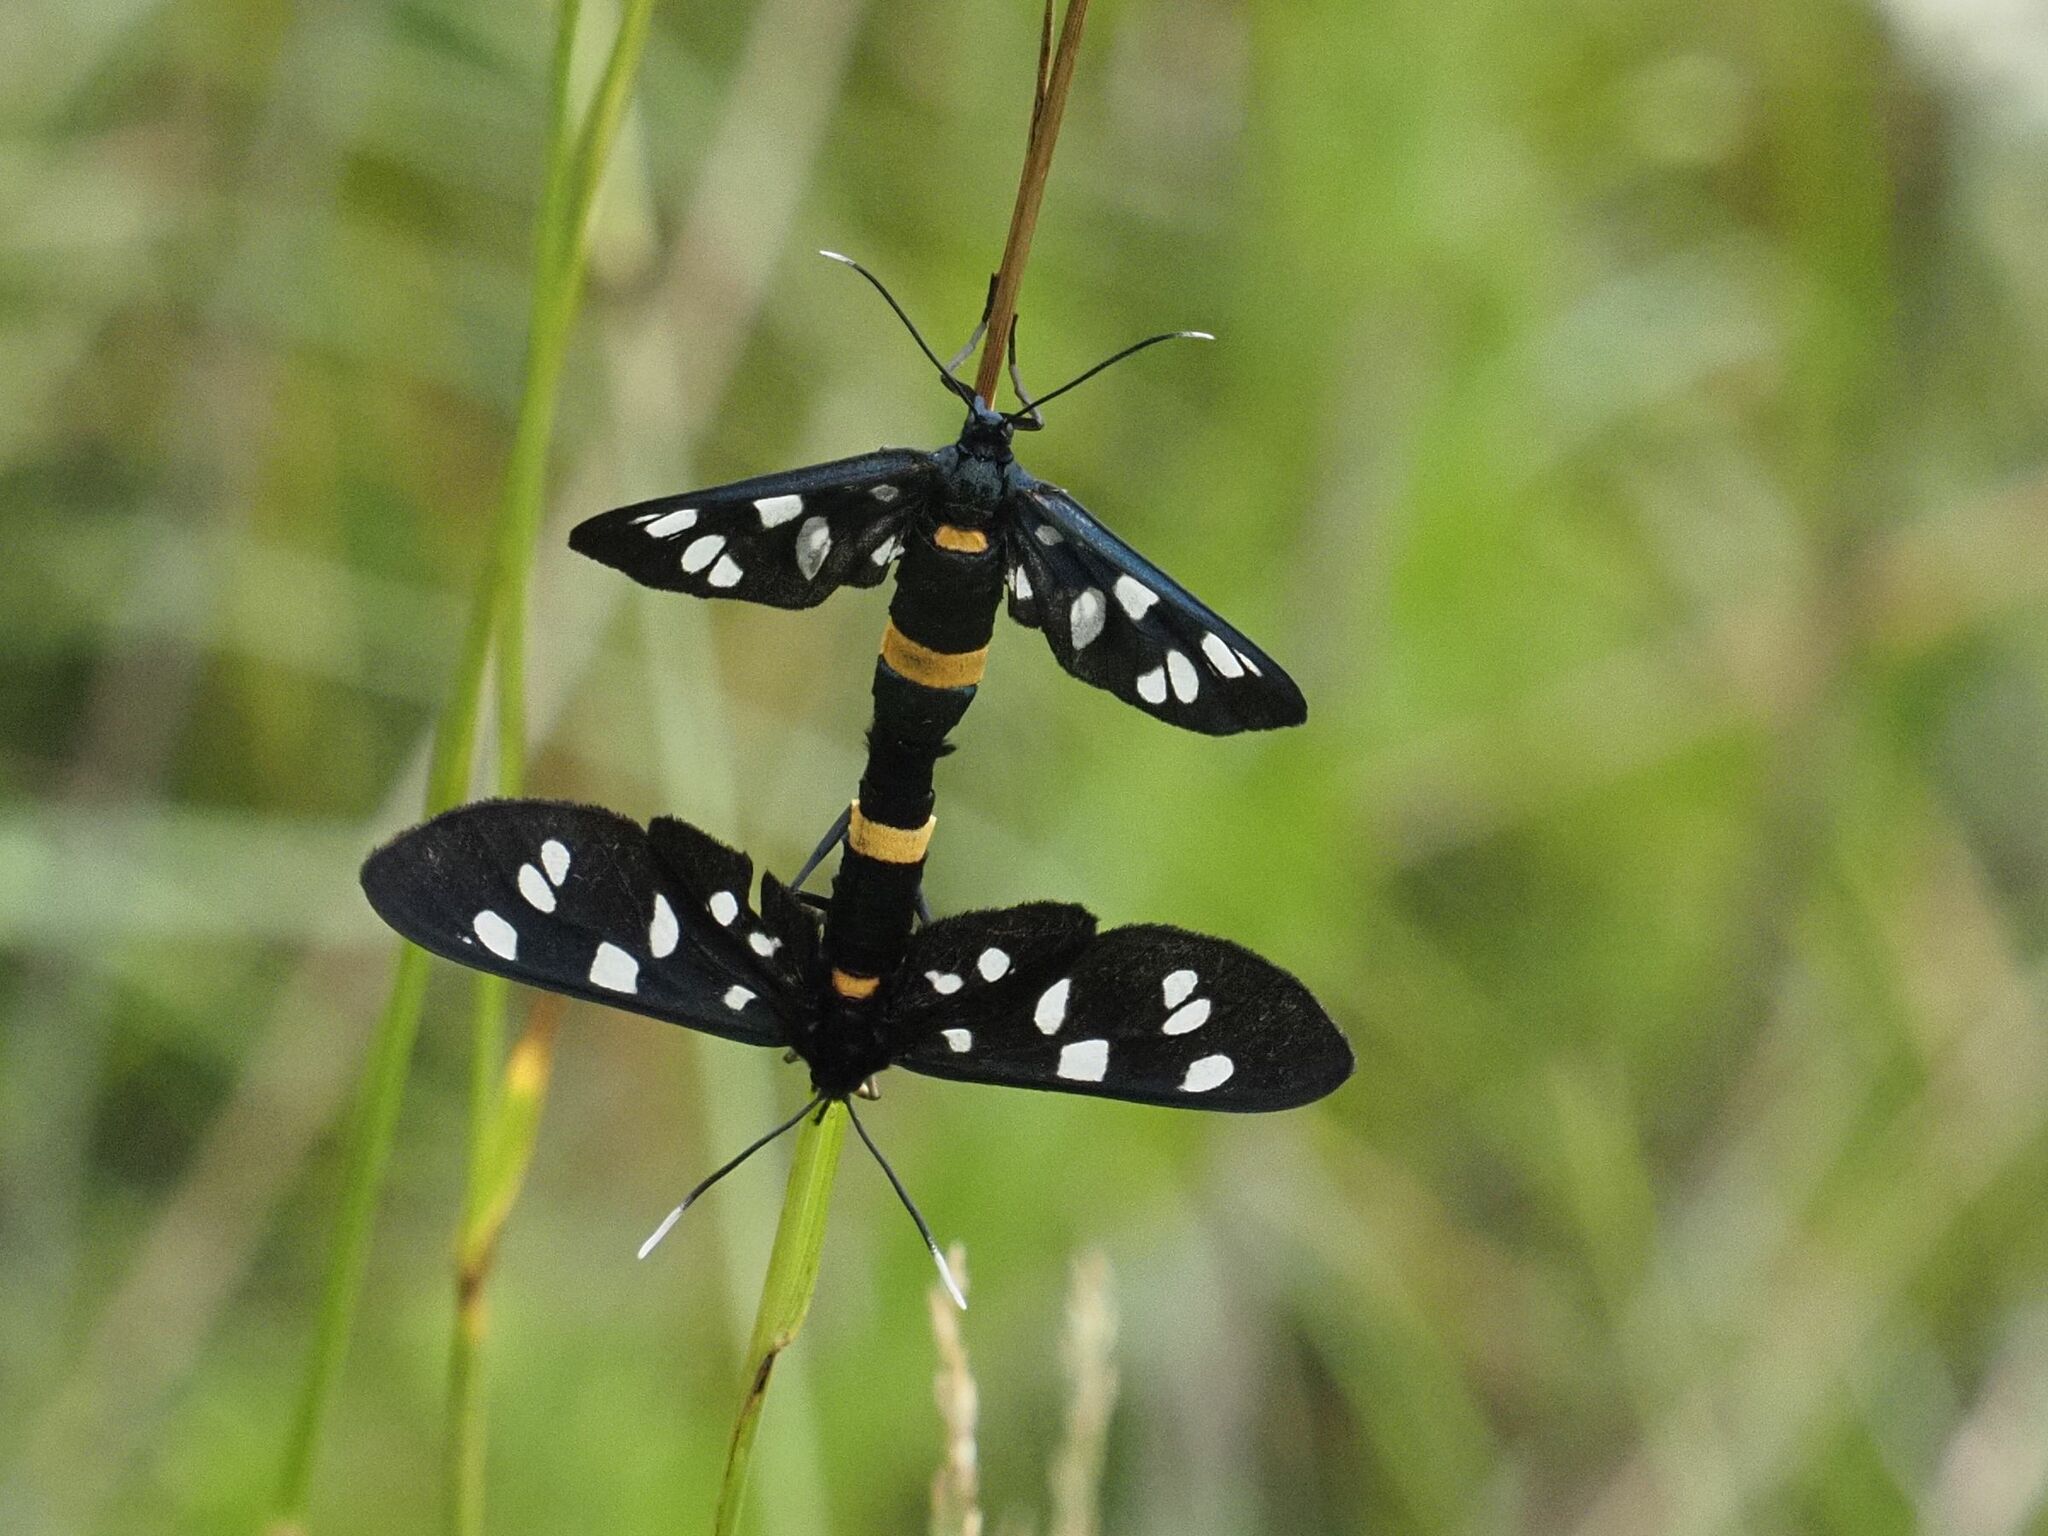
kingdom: Animalia
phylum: Arthropoda
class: Insecta
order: Lepidoptera
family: Erebidae
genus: Amata
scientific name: Amata phegea
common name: Nine-spotted
